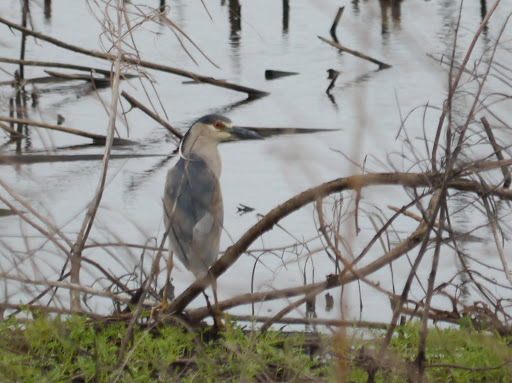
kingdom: Animalia
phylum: Chordata
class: Aves
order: Pelecaniformes
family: Ardeidae
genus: Nycticorax
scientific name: Nycticorax nycticorax
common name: Black-crowned night heron
